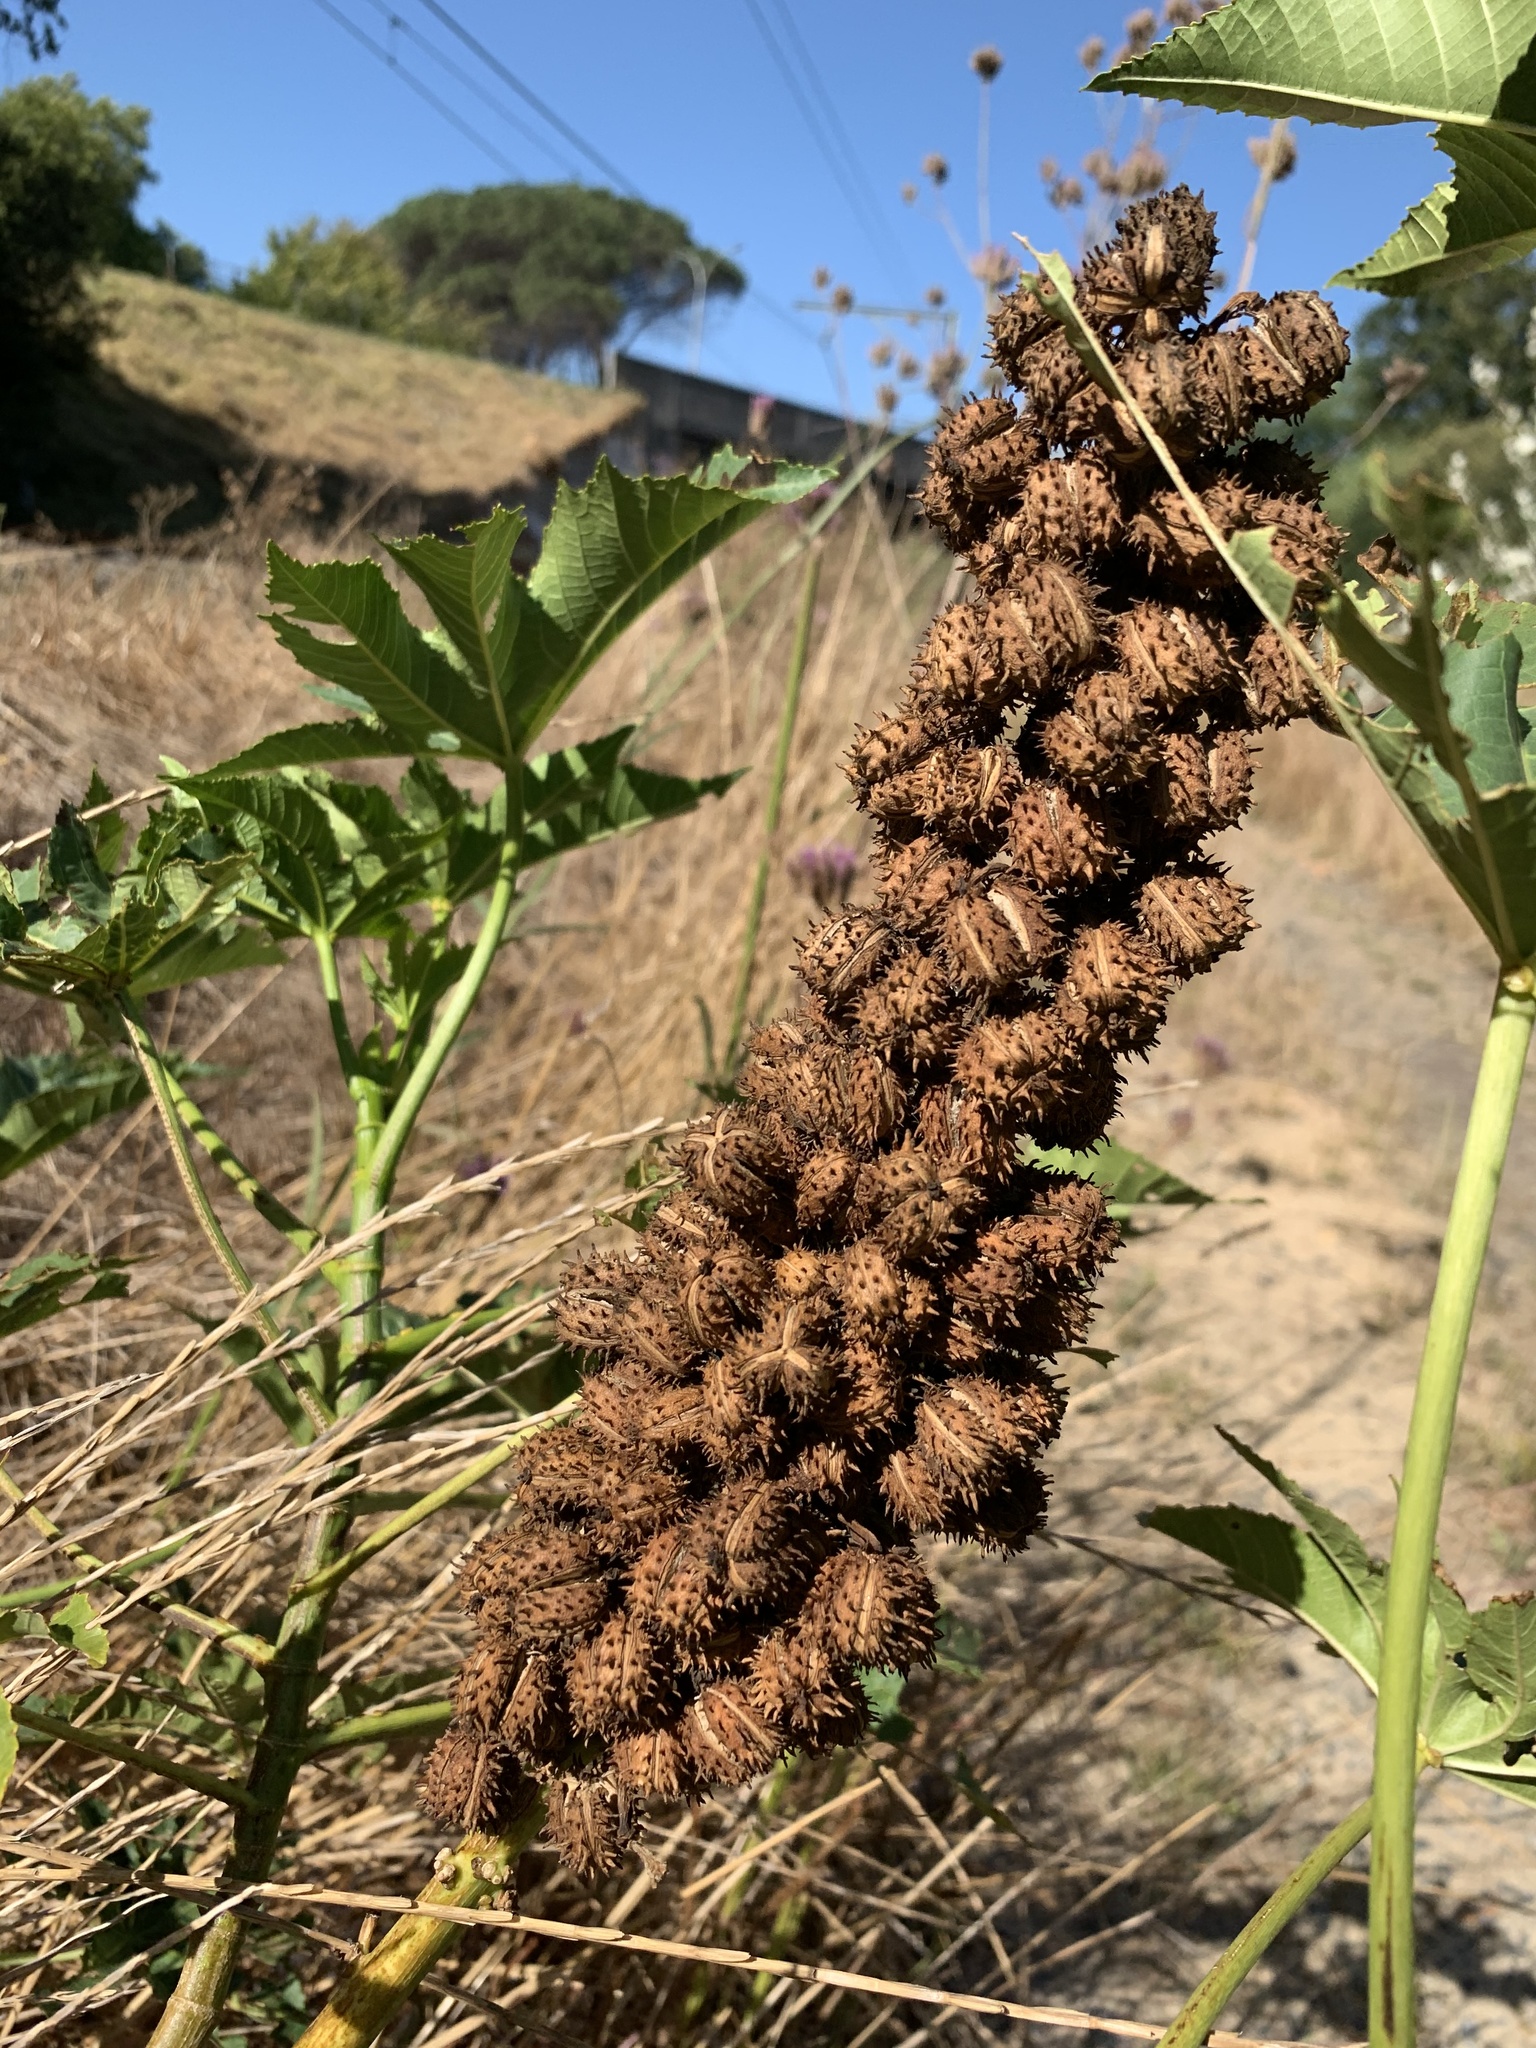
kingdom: Plantae
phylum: Tracheophyta
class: Magnoliopsida
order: Malpighiales
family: Euphorbiaceae
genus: Ricinus
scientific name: Ricinus communis
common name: Castor-oil-plant
